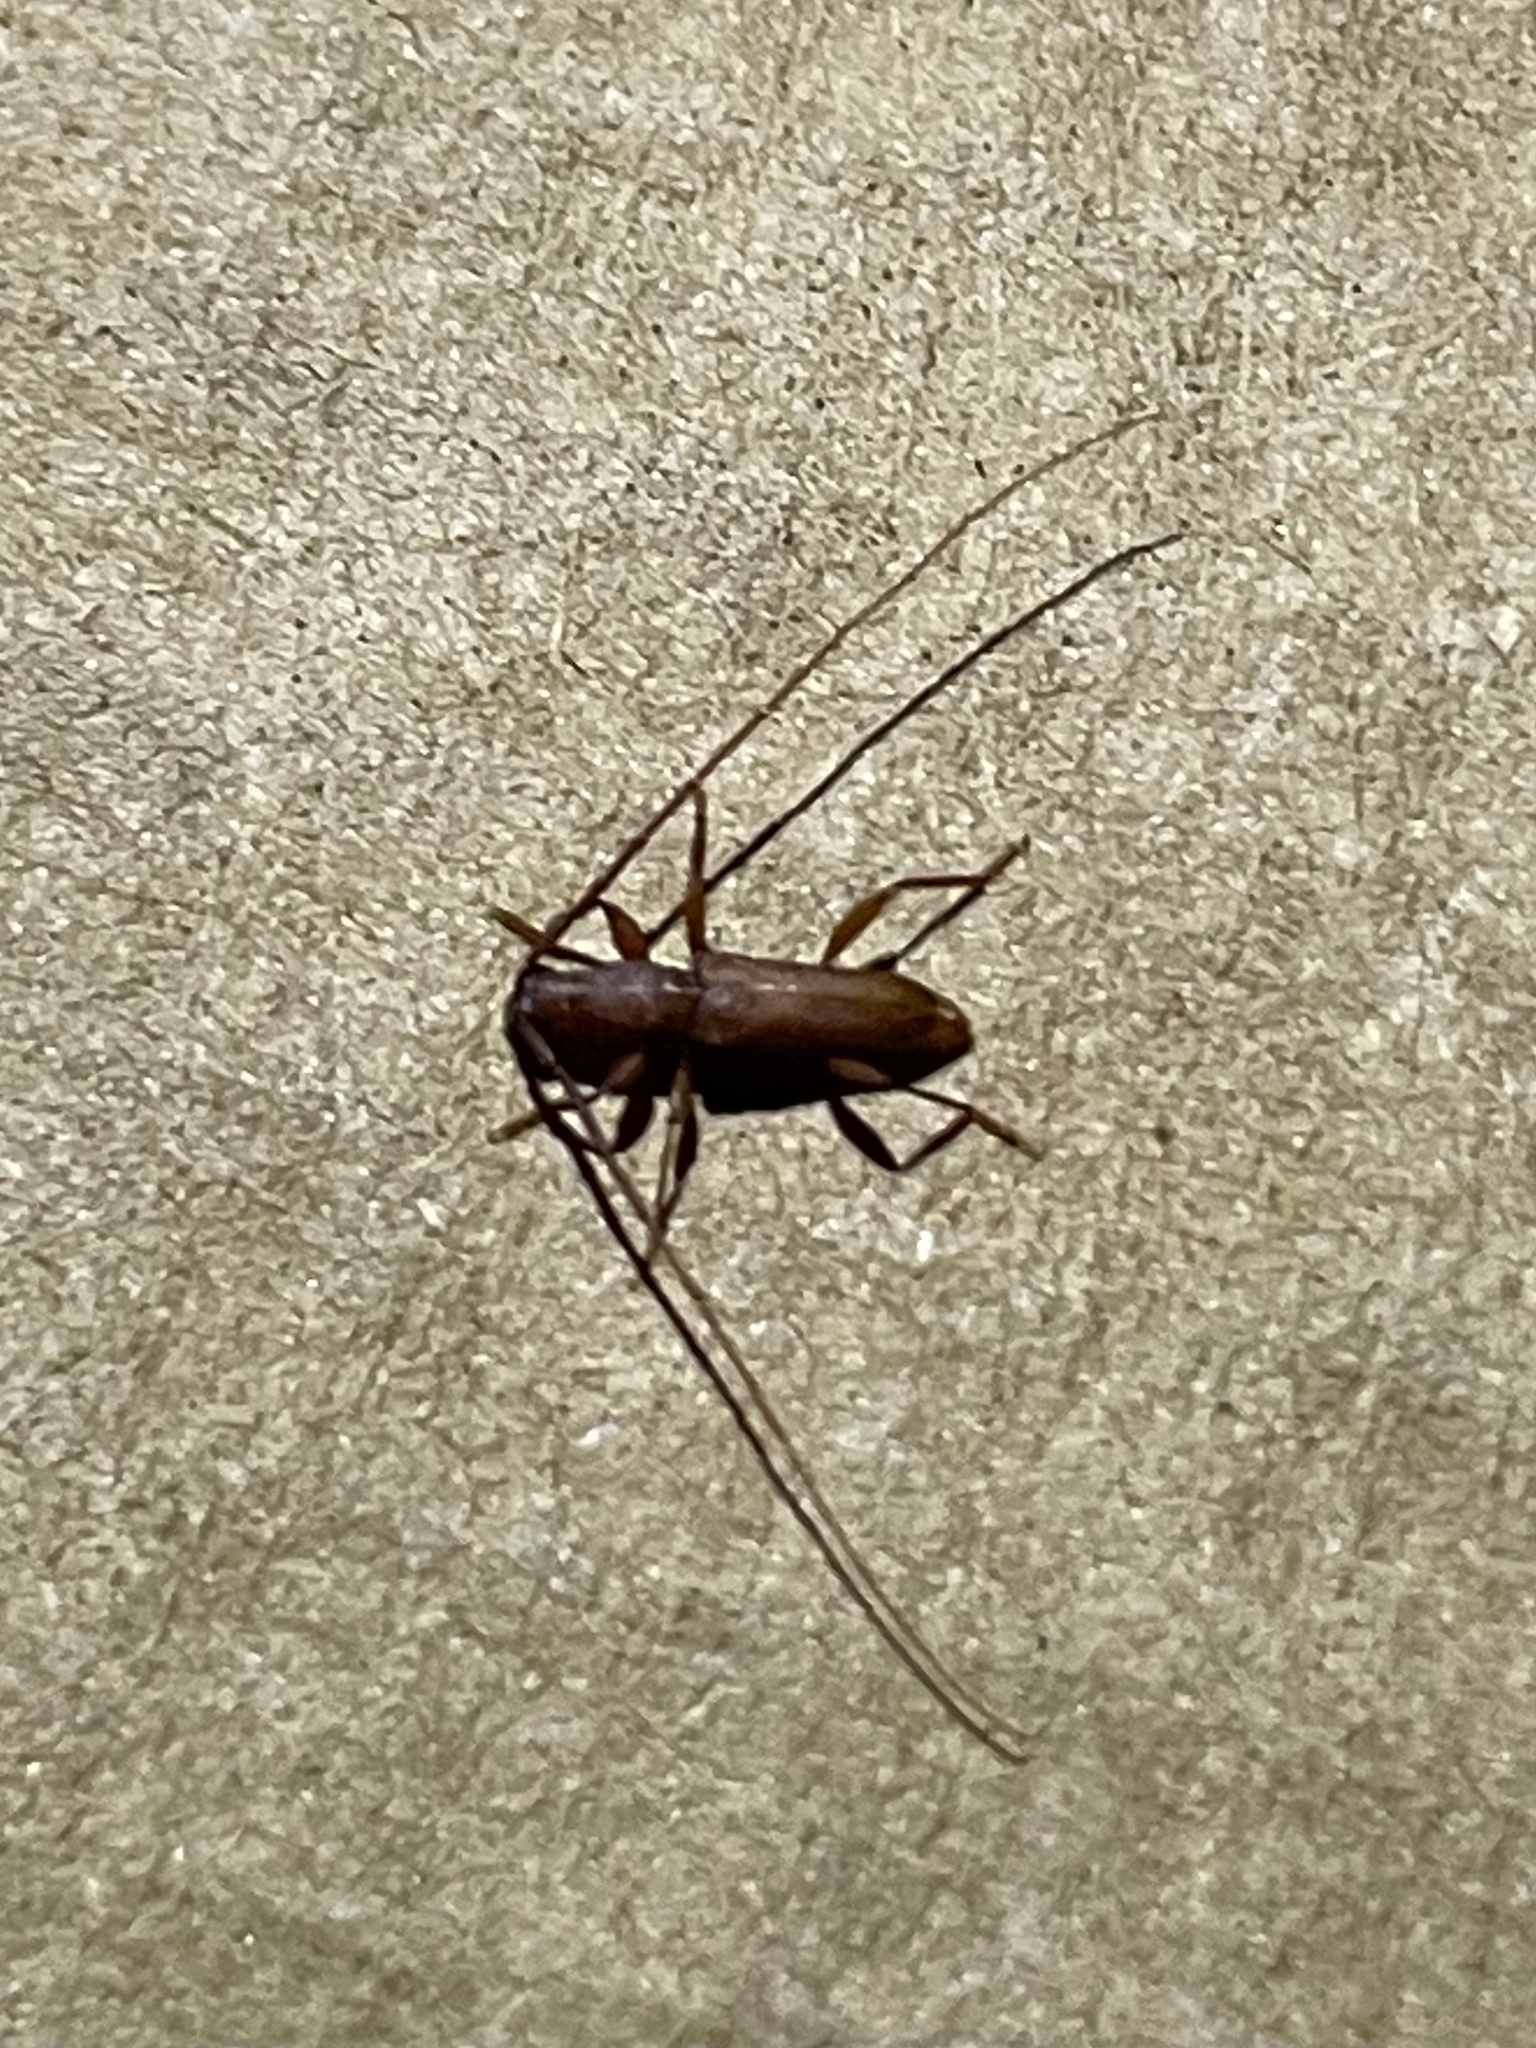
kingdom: Animalia
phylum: Arthropoda
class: Insecta
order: Coleoptera
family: Cerambycidae
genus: Hypexilis
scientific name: Hypexilis pallida
